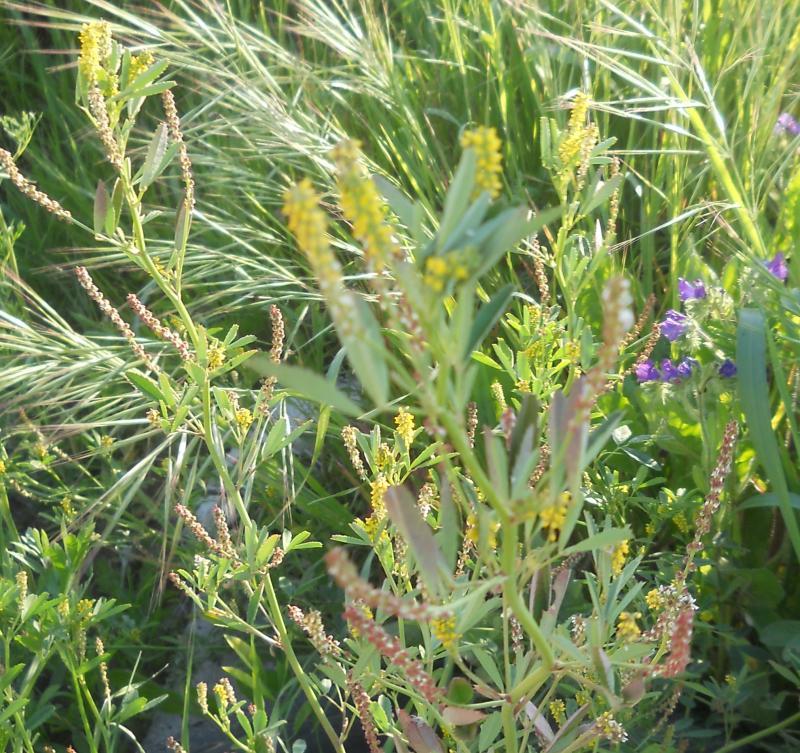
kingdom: Plantae
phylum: Tracheophyta
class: Magnoliopsida
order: Fabales
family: Fabaceae
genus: Melilotus
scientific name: Melilotus indicus
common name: Small melilot
